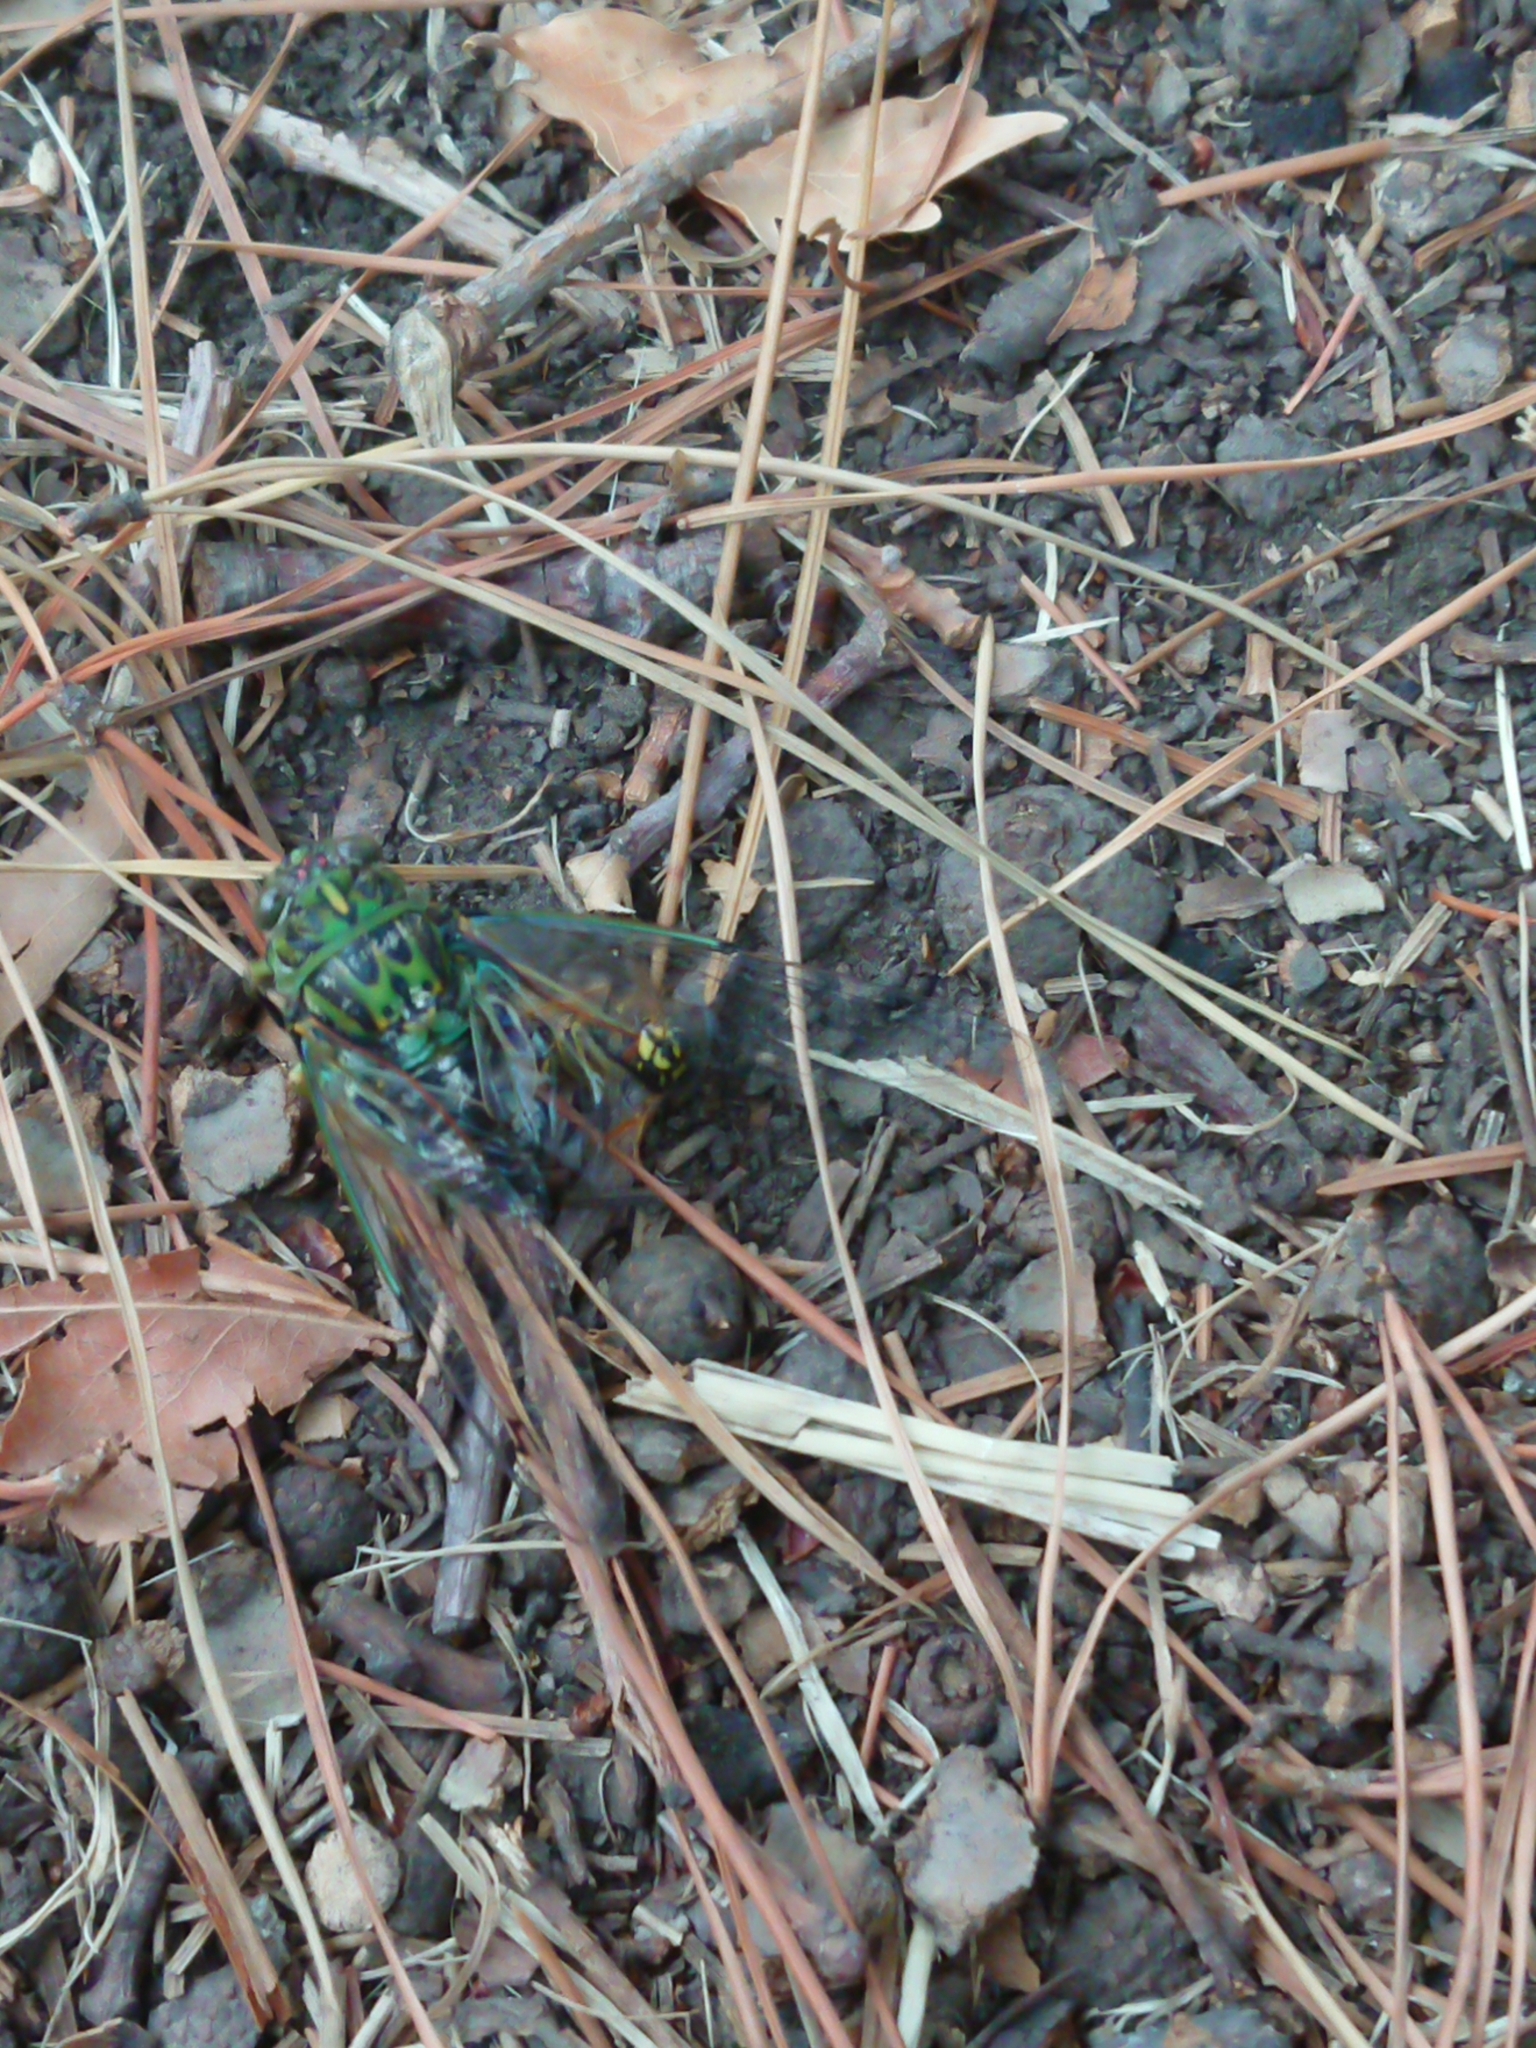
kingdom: Animalia
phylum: Arthropoda
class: Insecta
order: Hymenoptera
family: Vespidae
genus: Vespula
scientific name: Vespula vulgaris
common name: Common wasp
